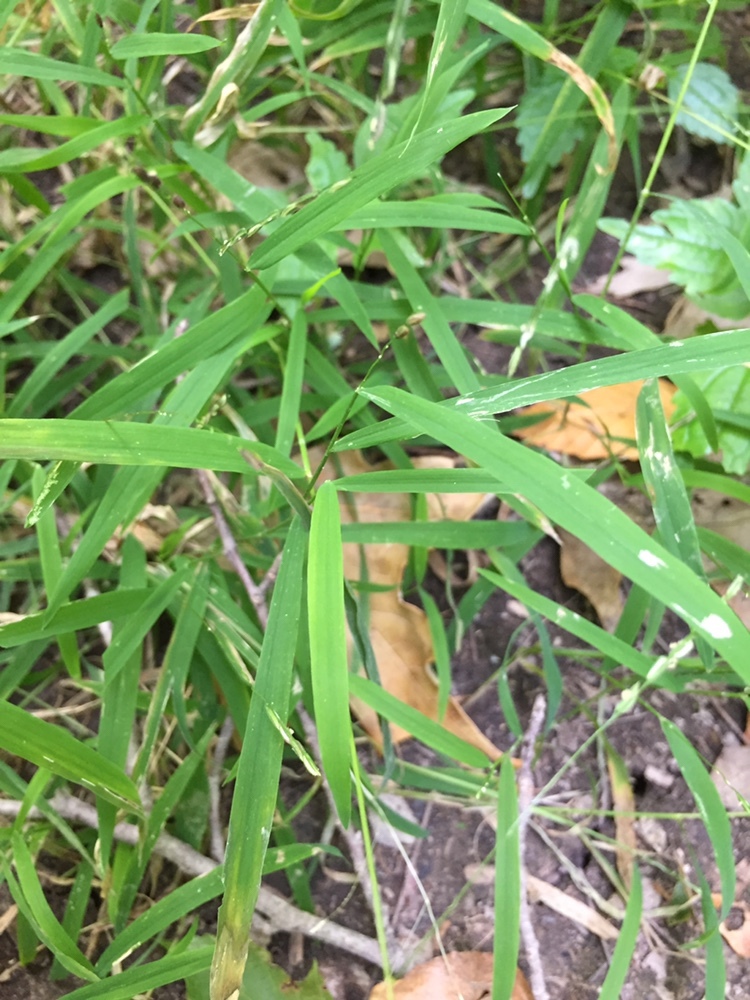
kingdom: Plantae
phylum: Tracheophyta
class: Liliopsida
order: Poales
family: Poaceae
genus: Leersia
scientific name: Leersia virginica
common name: White cutgrass
